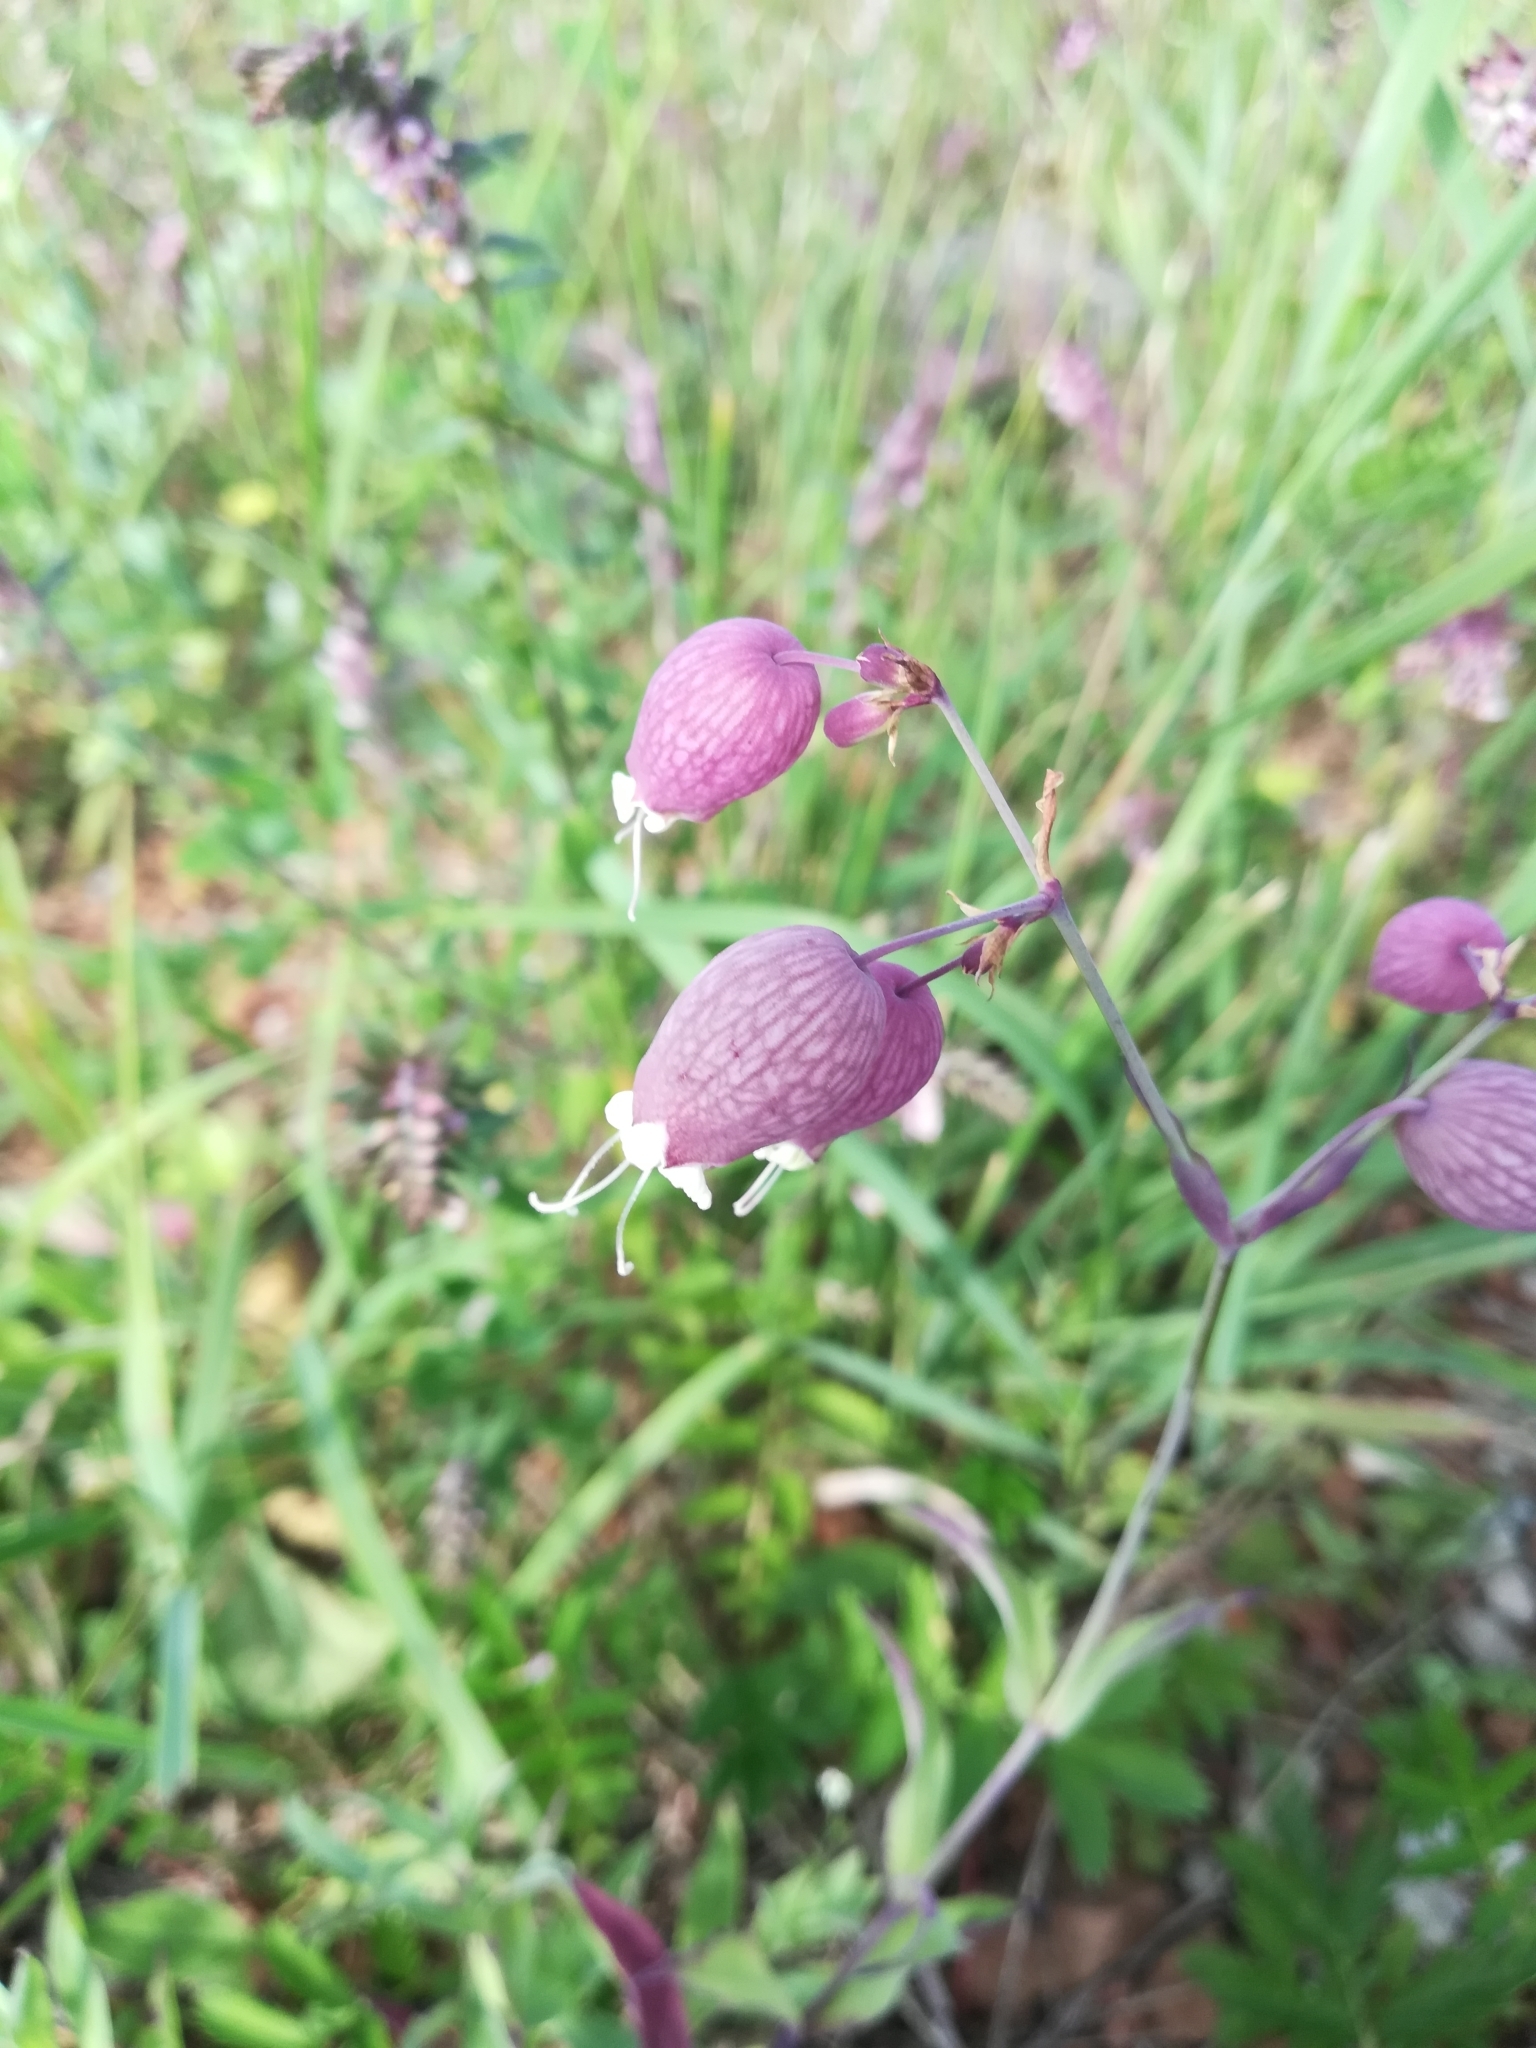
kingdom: Plantae
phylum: Tracheophyta
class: Magnoliopsida
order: Caryophyllales
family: Caryophyllaceae
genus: Silene
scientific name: Silene vulgaris
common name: Bladder campion
